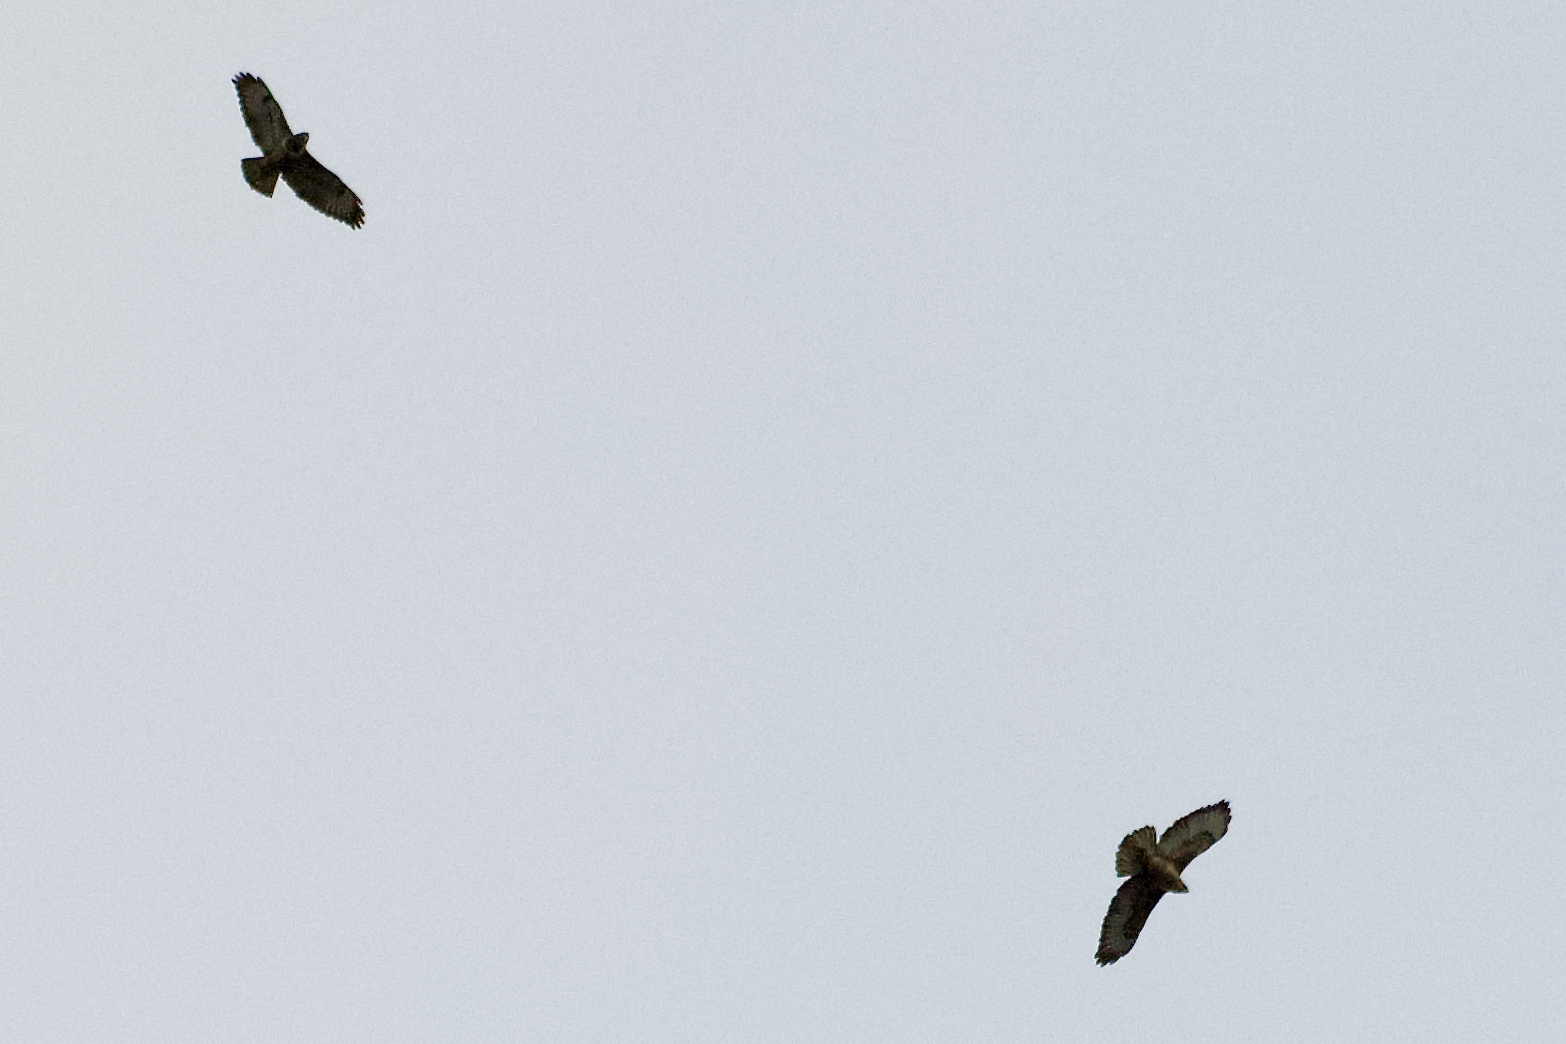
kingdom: Animalia
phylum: Chordata
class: Aves
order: Accipitriformes
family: Accipitridae
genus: Buteo
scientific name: Buteo buteo
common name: Common buzzard
